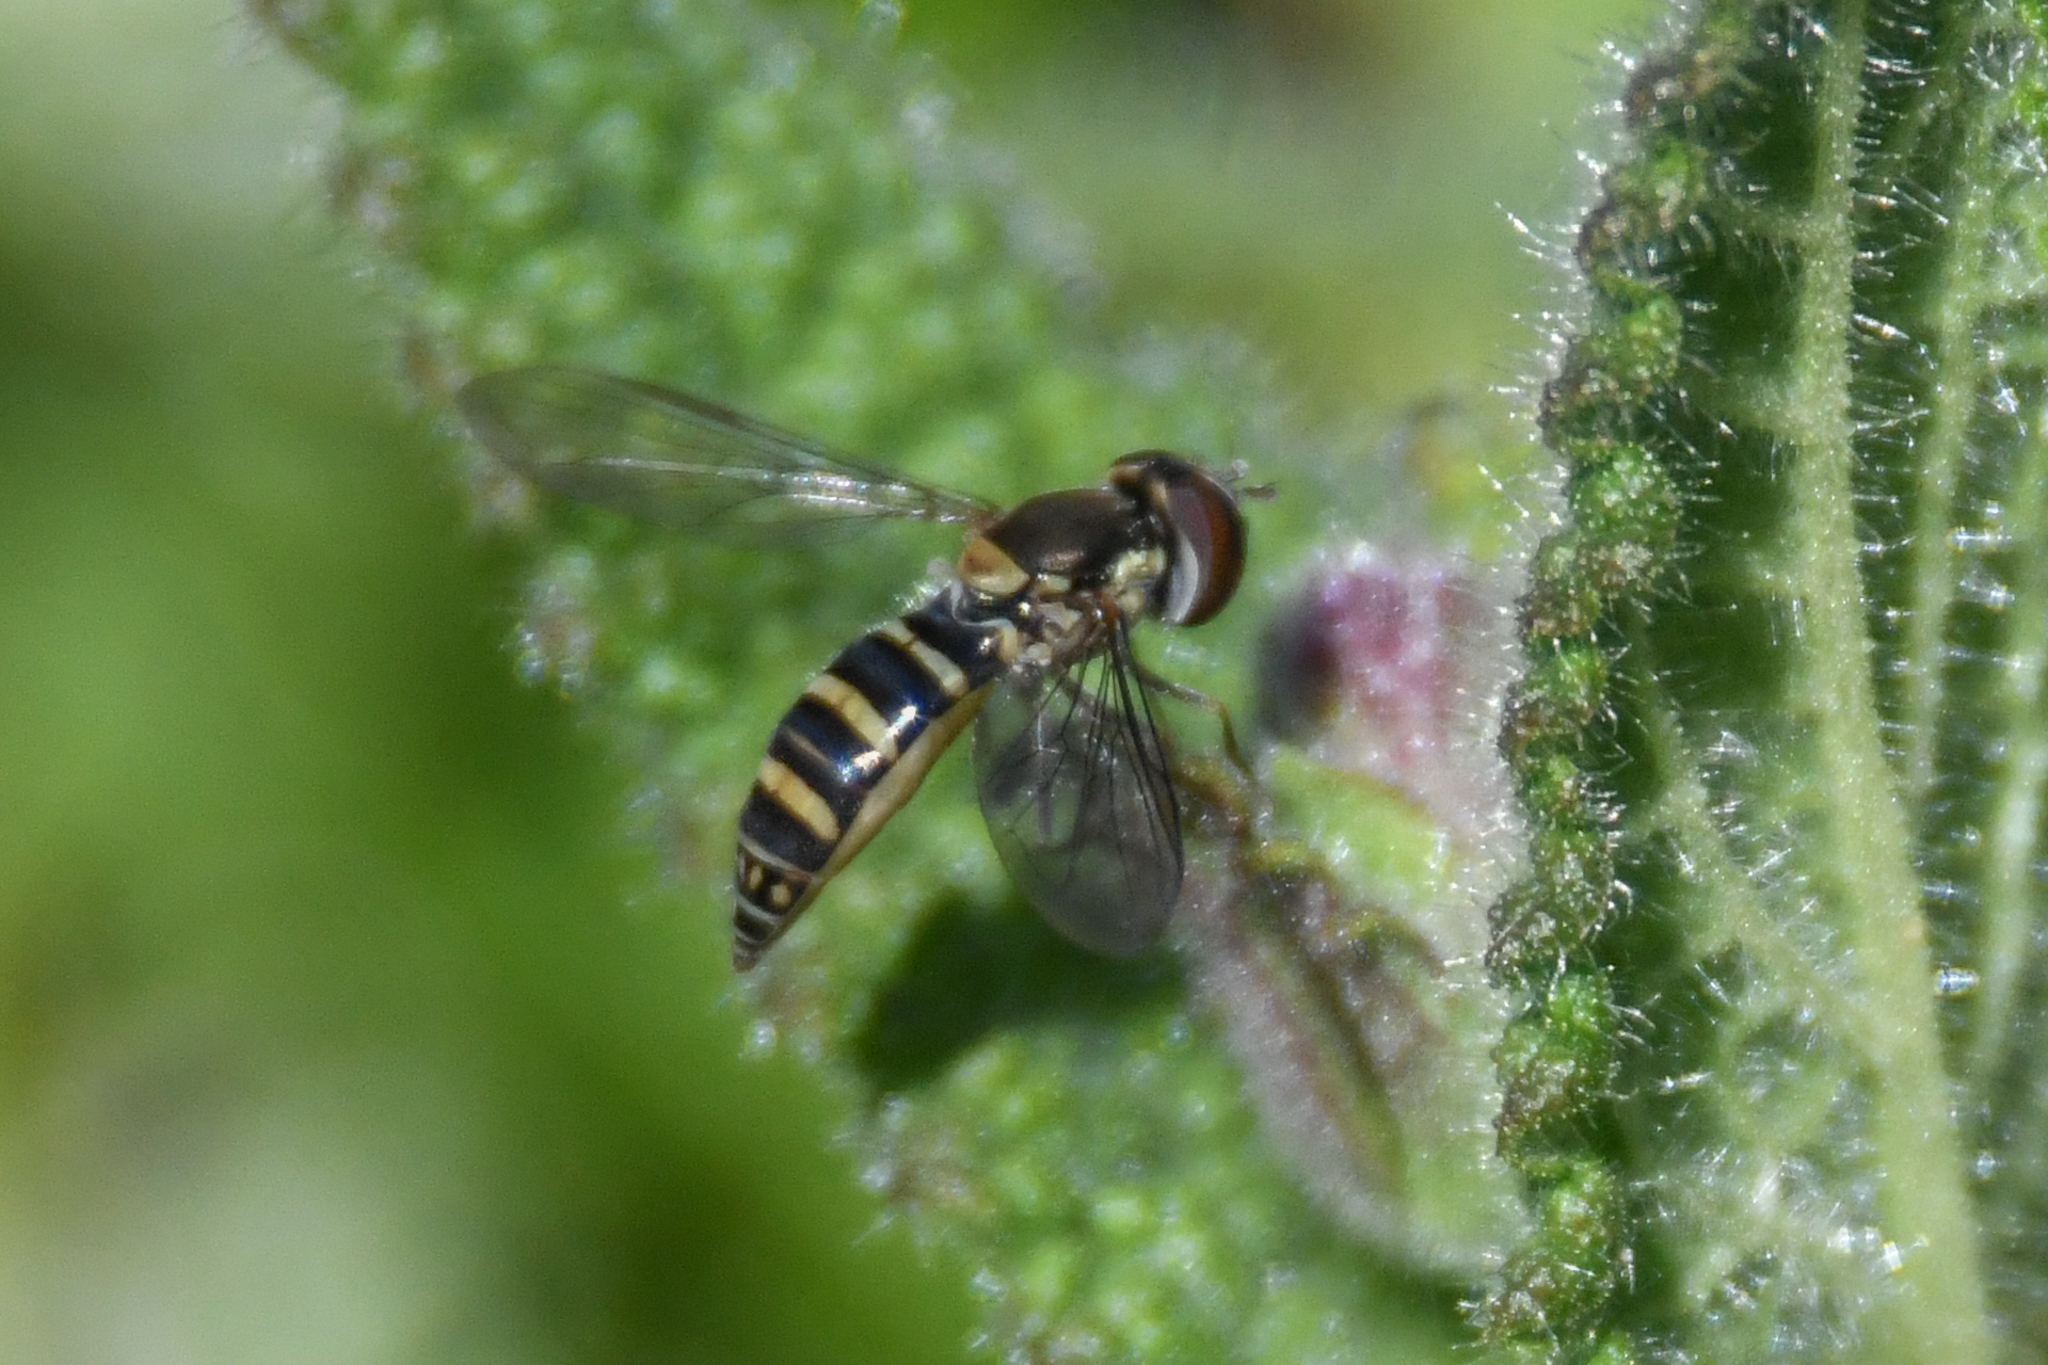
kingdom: Animalia
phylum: Arthropoda
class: Insecta
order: Diptera
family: Syrphidae
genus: Fazia
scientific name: Fazia micrura
